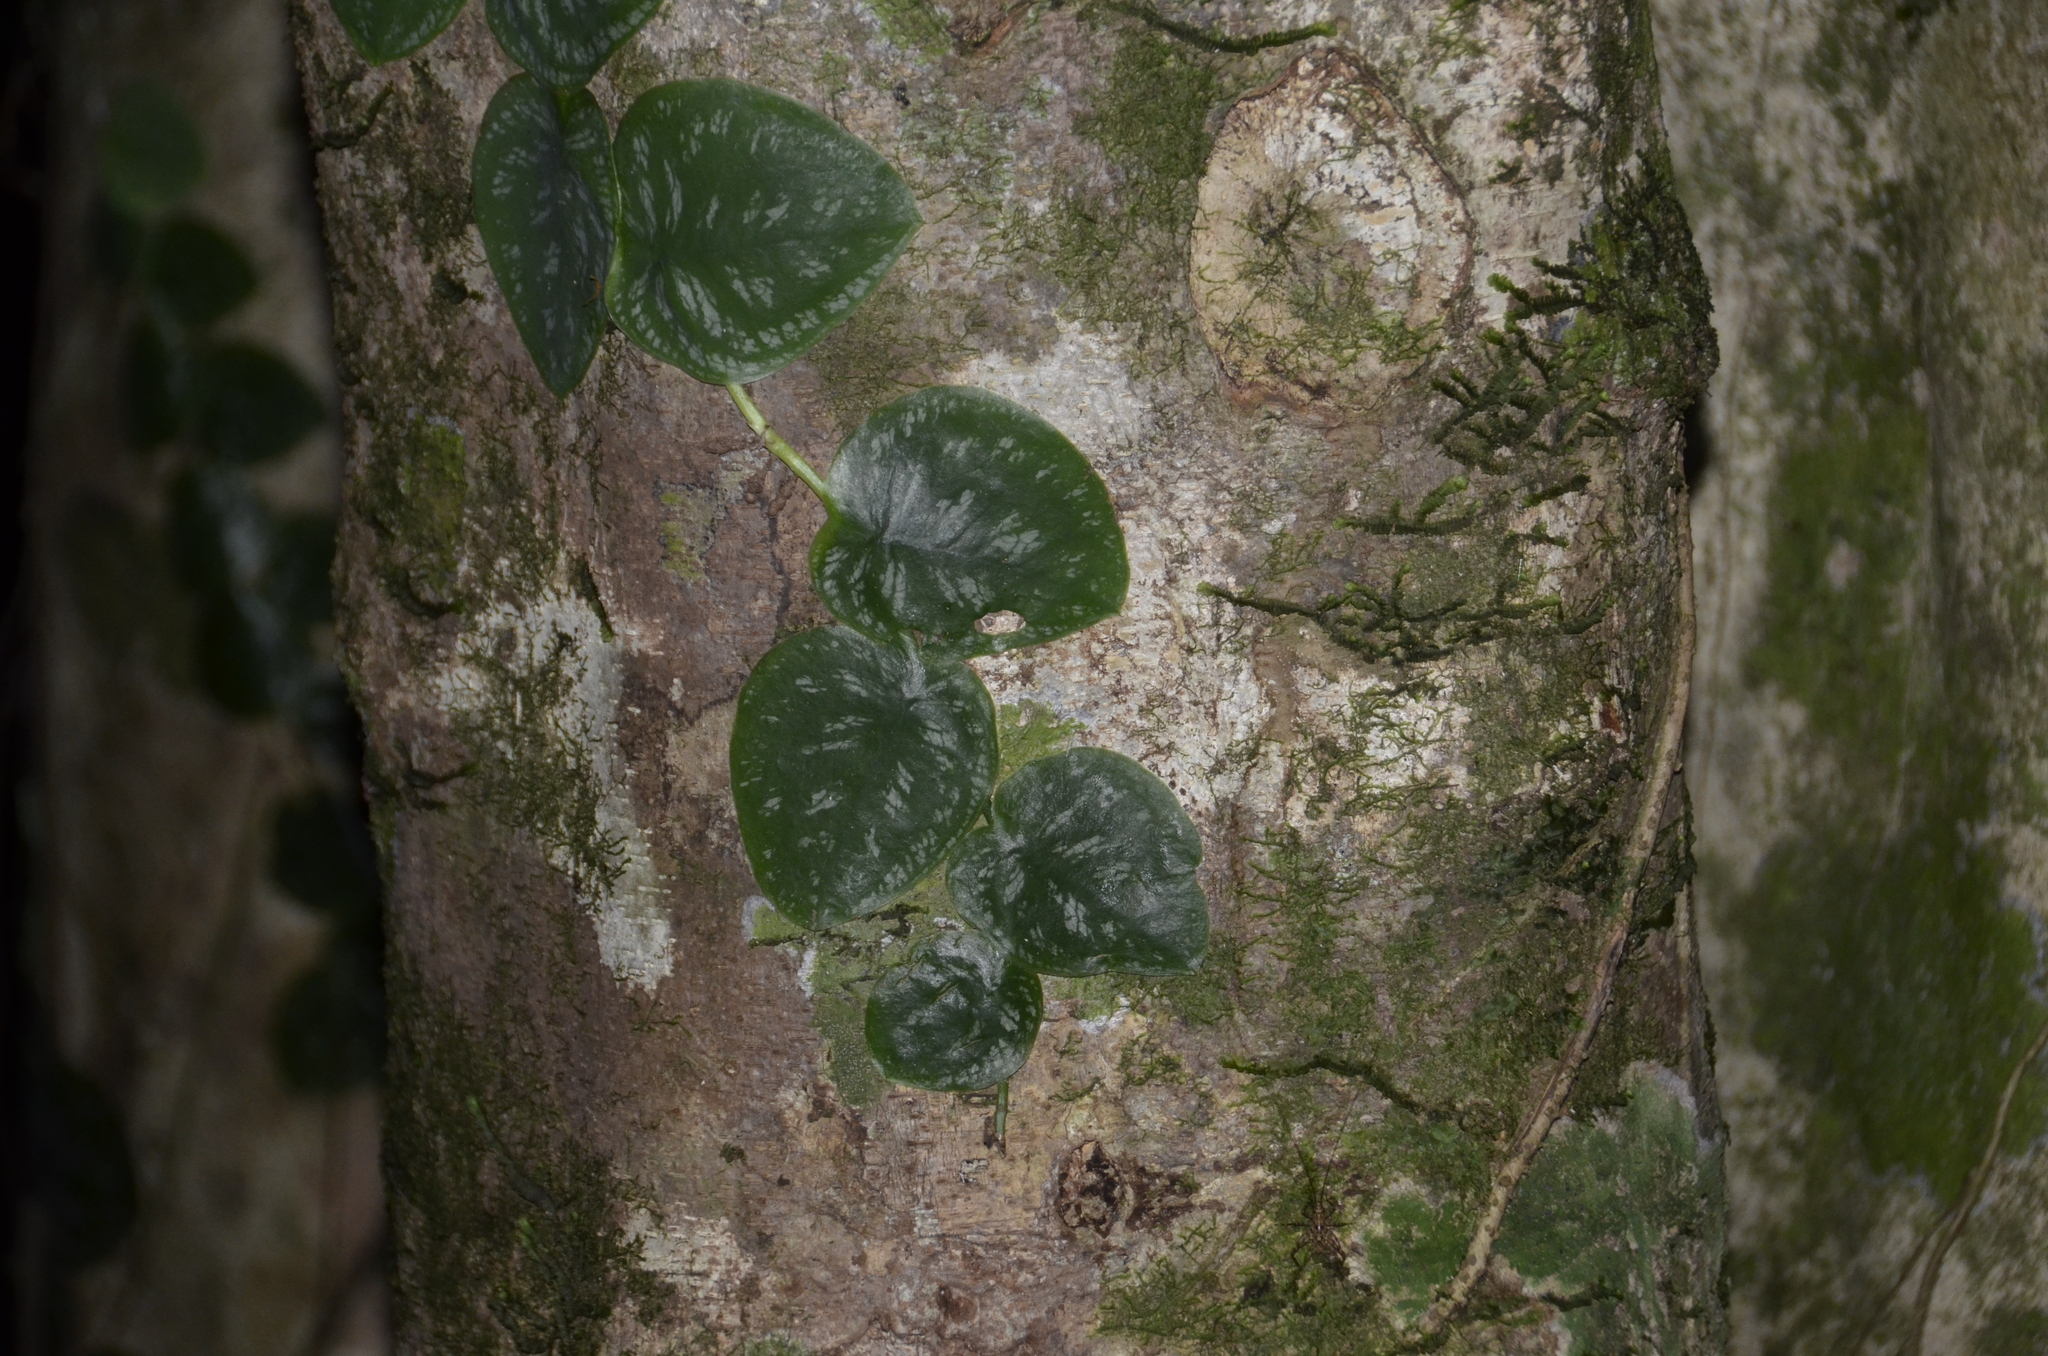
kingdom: Plantae
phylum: Tracheophyta
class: Liliopsida
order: Alismatales
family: Araceae
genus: Monstera
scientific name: Monstera tuberculata
